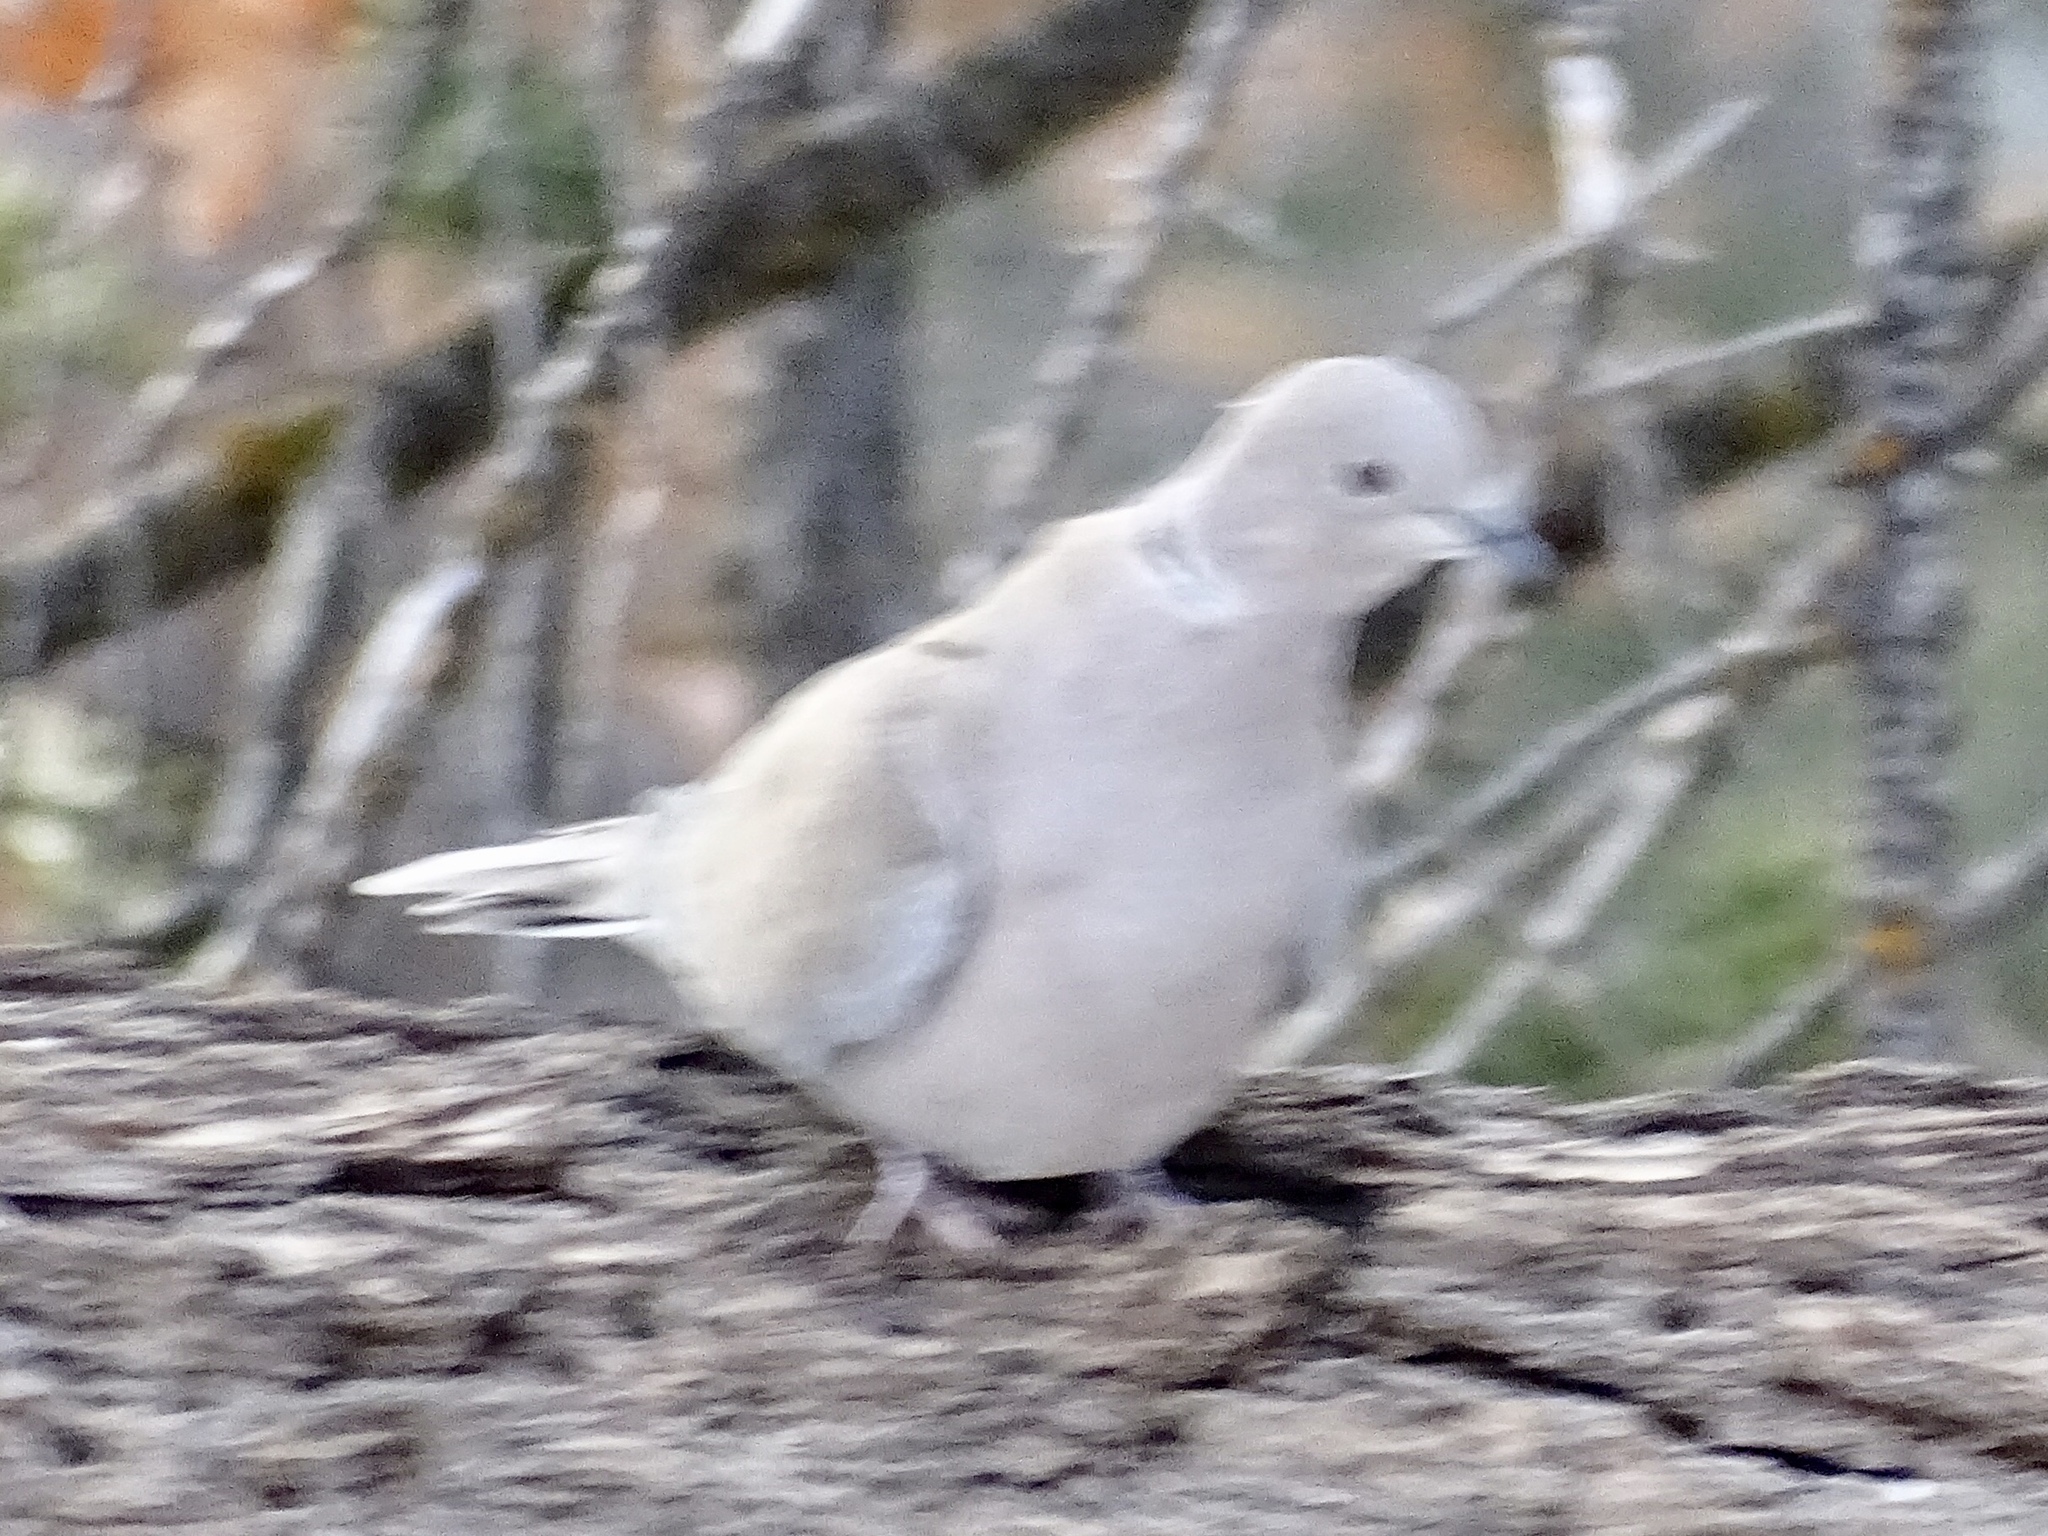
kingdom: Animalia
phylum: Chordata
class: Aves
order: Columbiformes
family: Columbidae
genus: Streptopelia
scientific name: Streptopelia decaocto
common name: Eurasian collared dove
